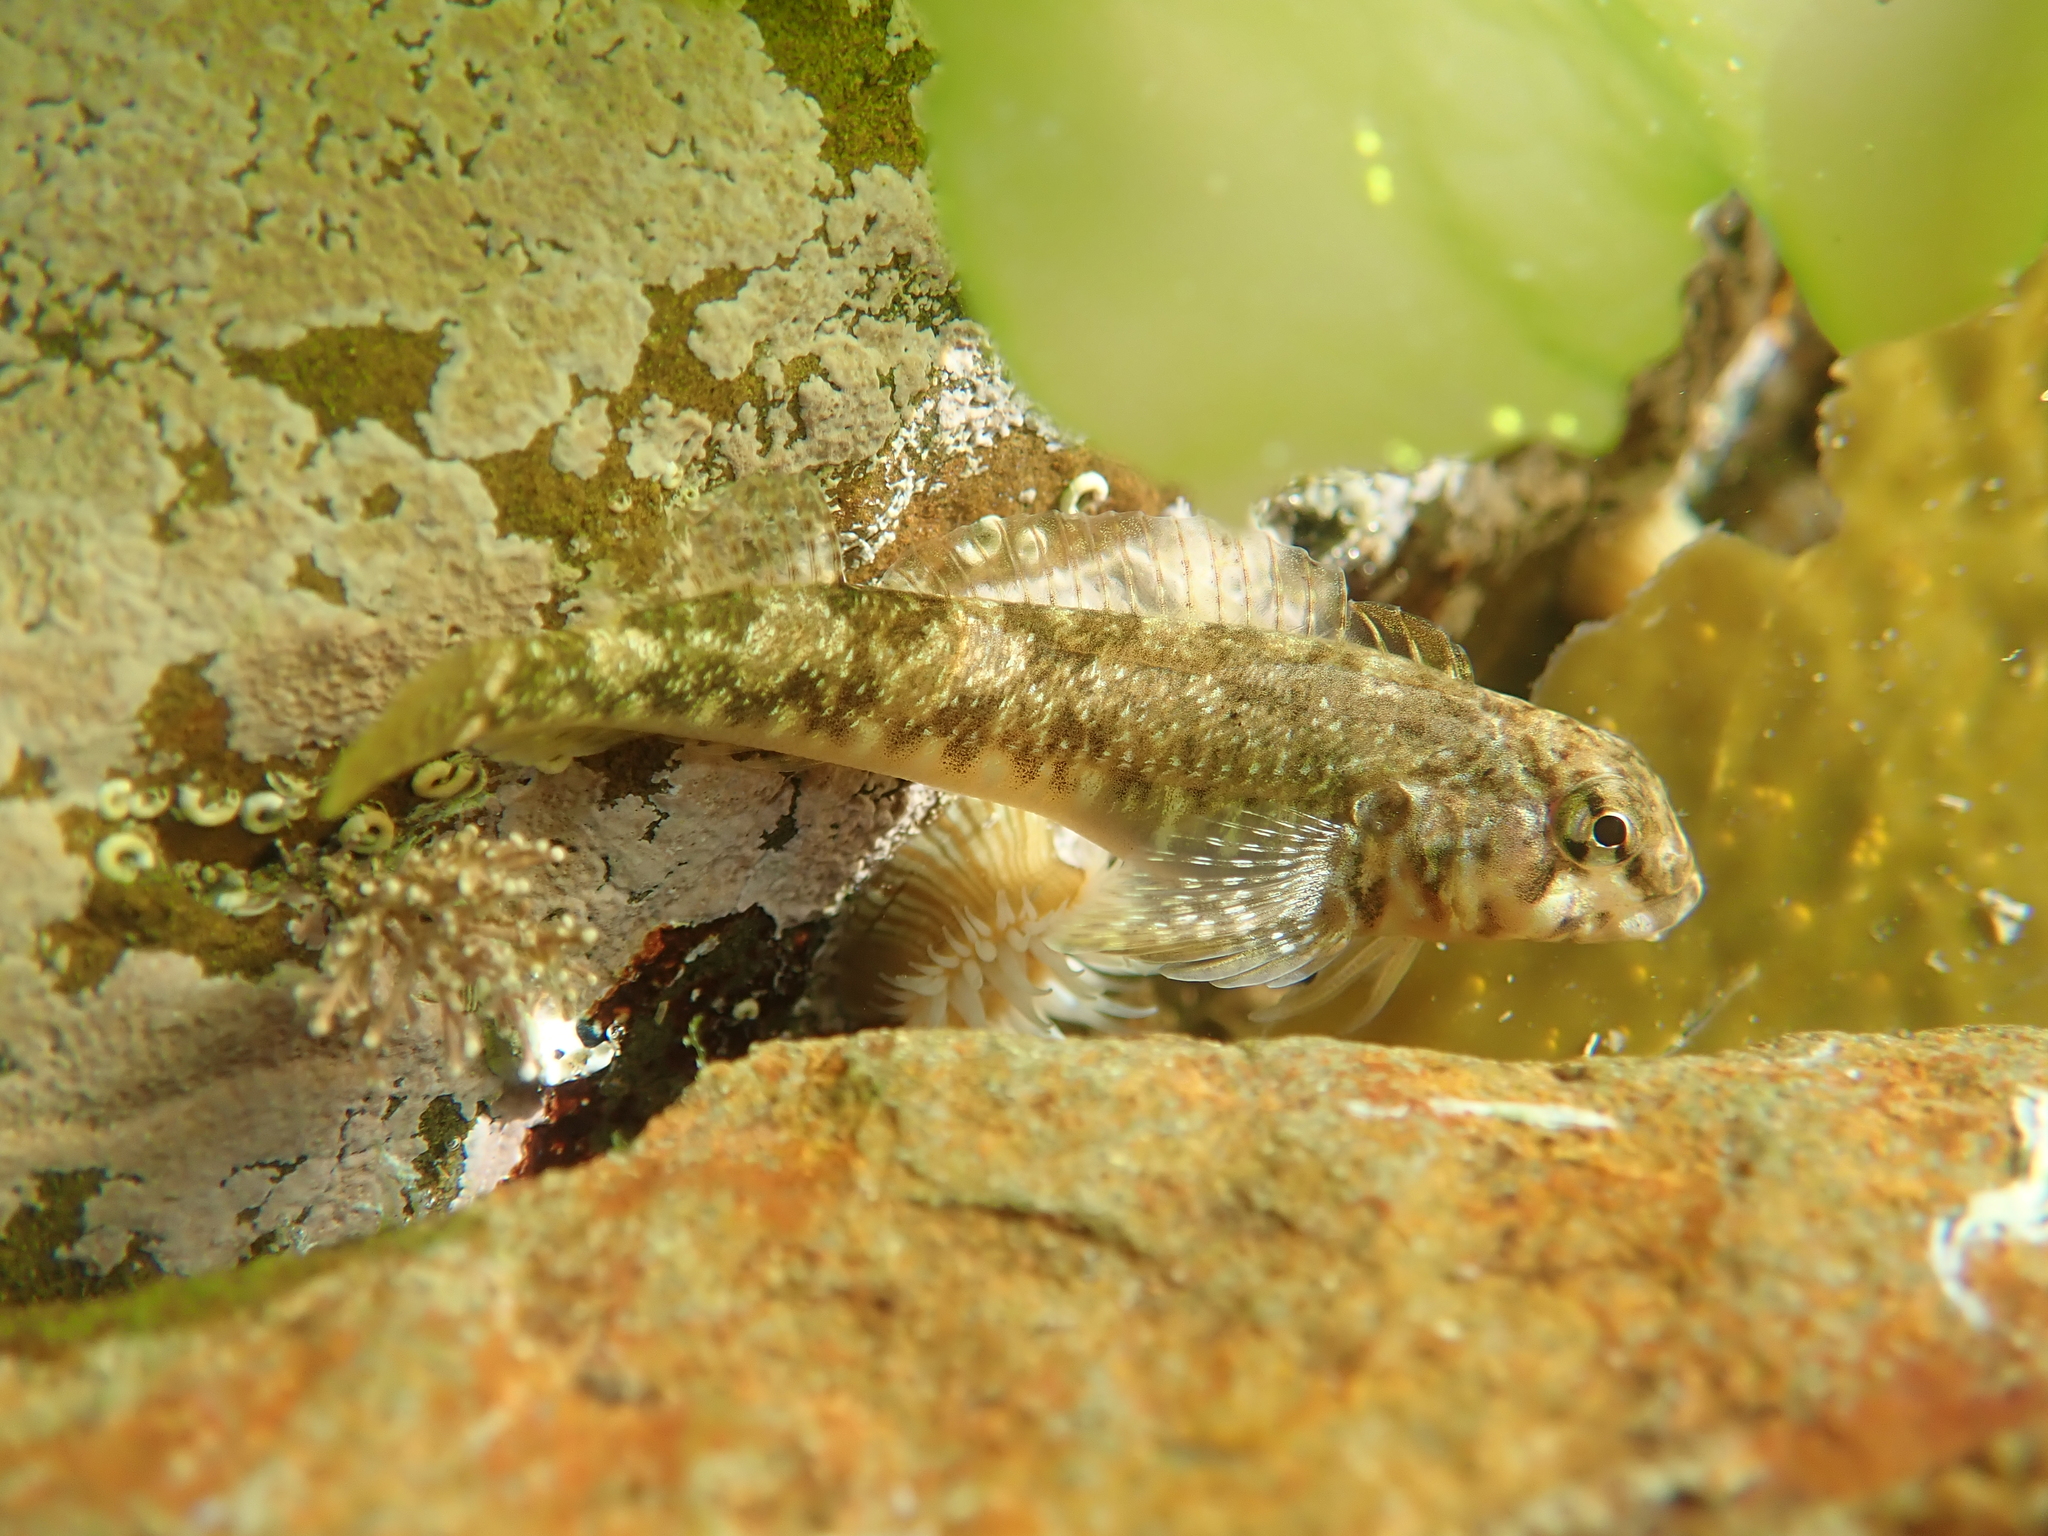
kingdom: Animalia
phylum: Chordata
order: Perciformes
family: Tripterygiidae
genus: Bellapiscis
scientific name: Bellapiscis medius
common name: Twister
